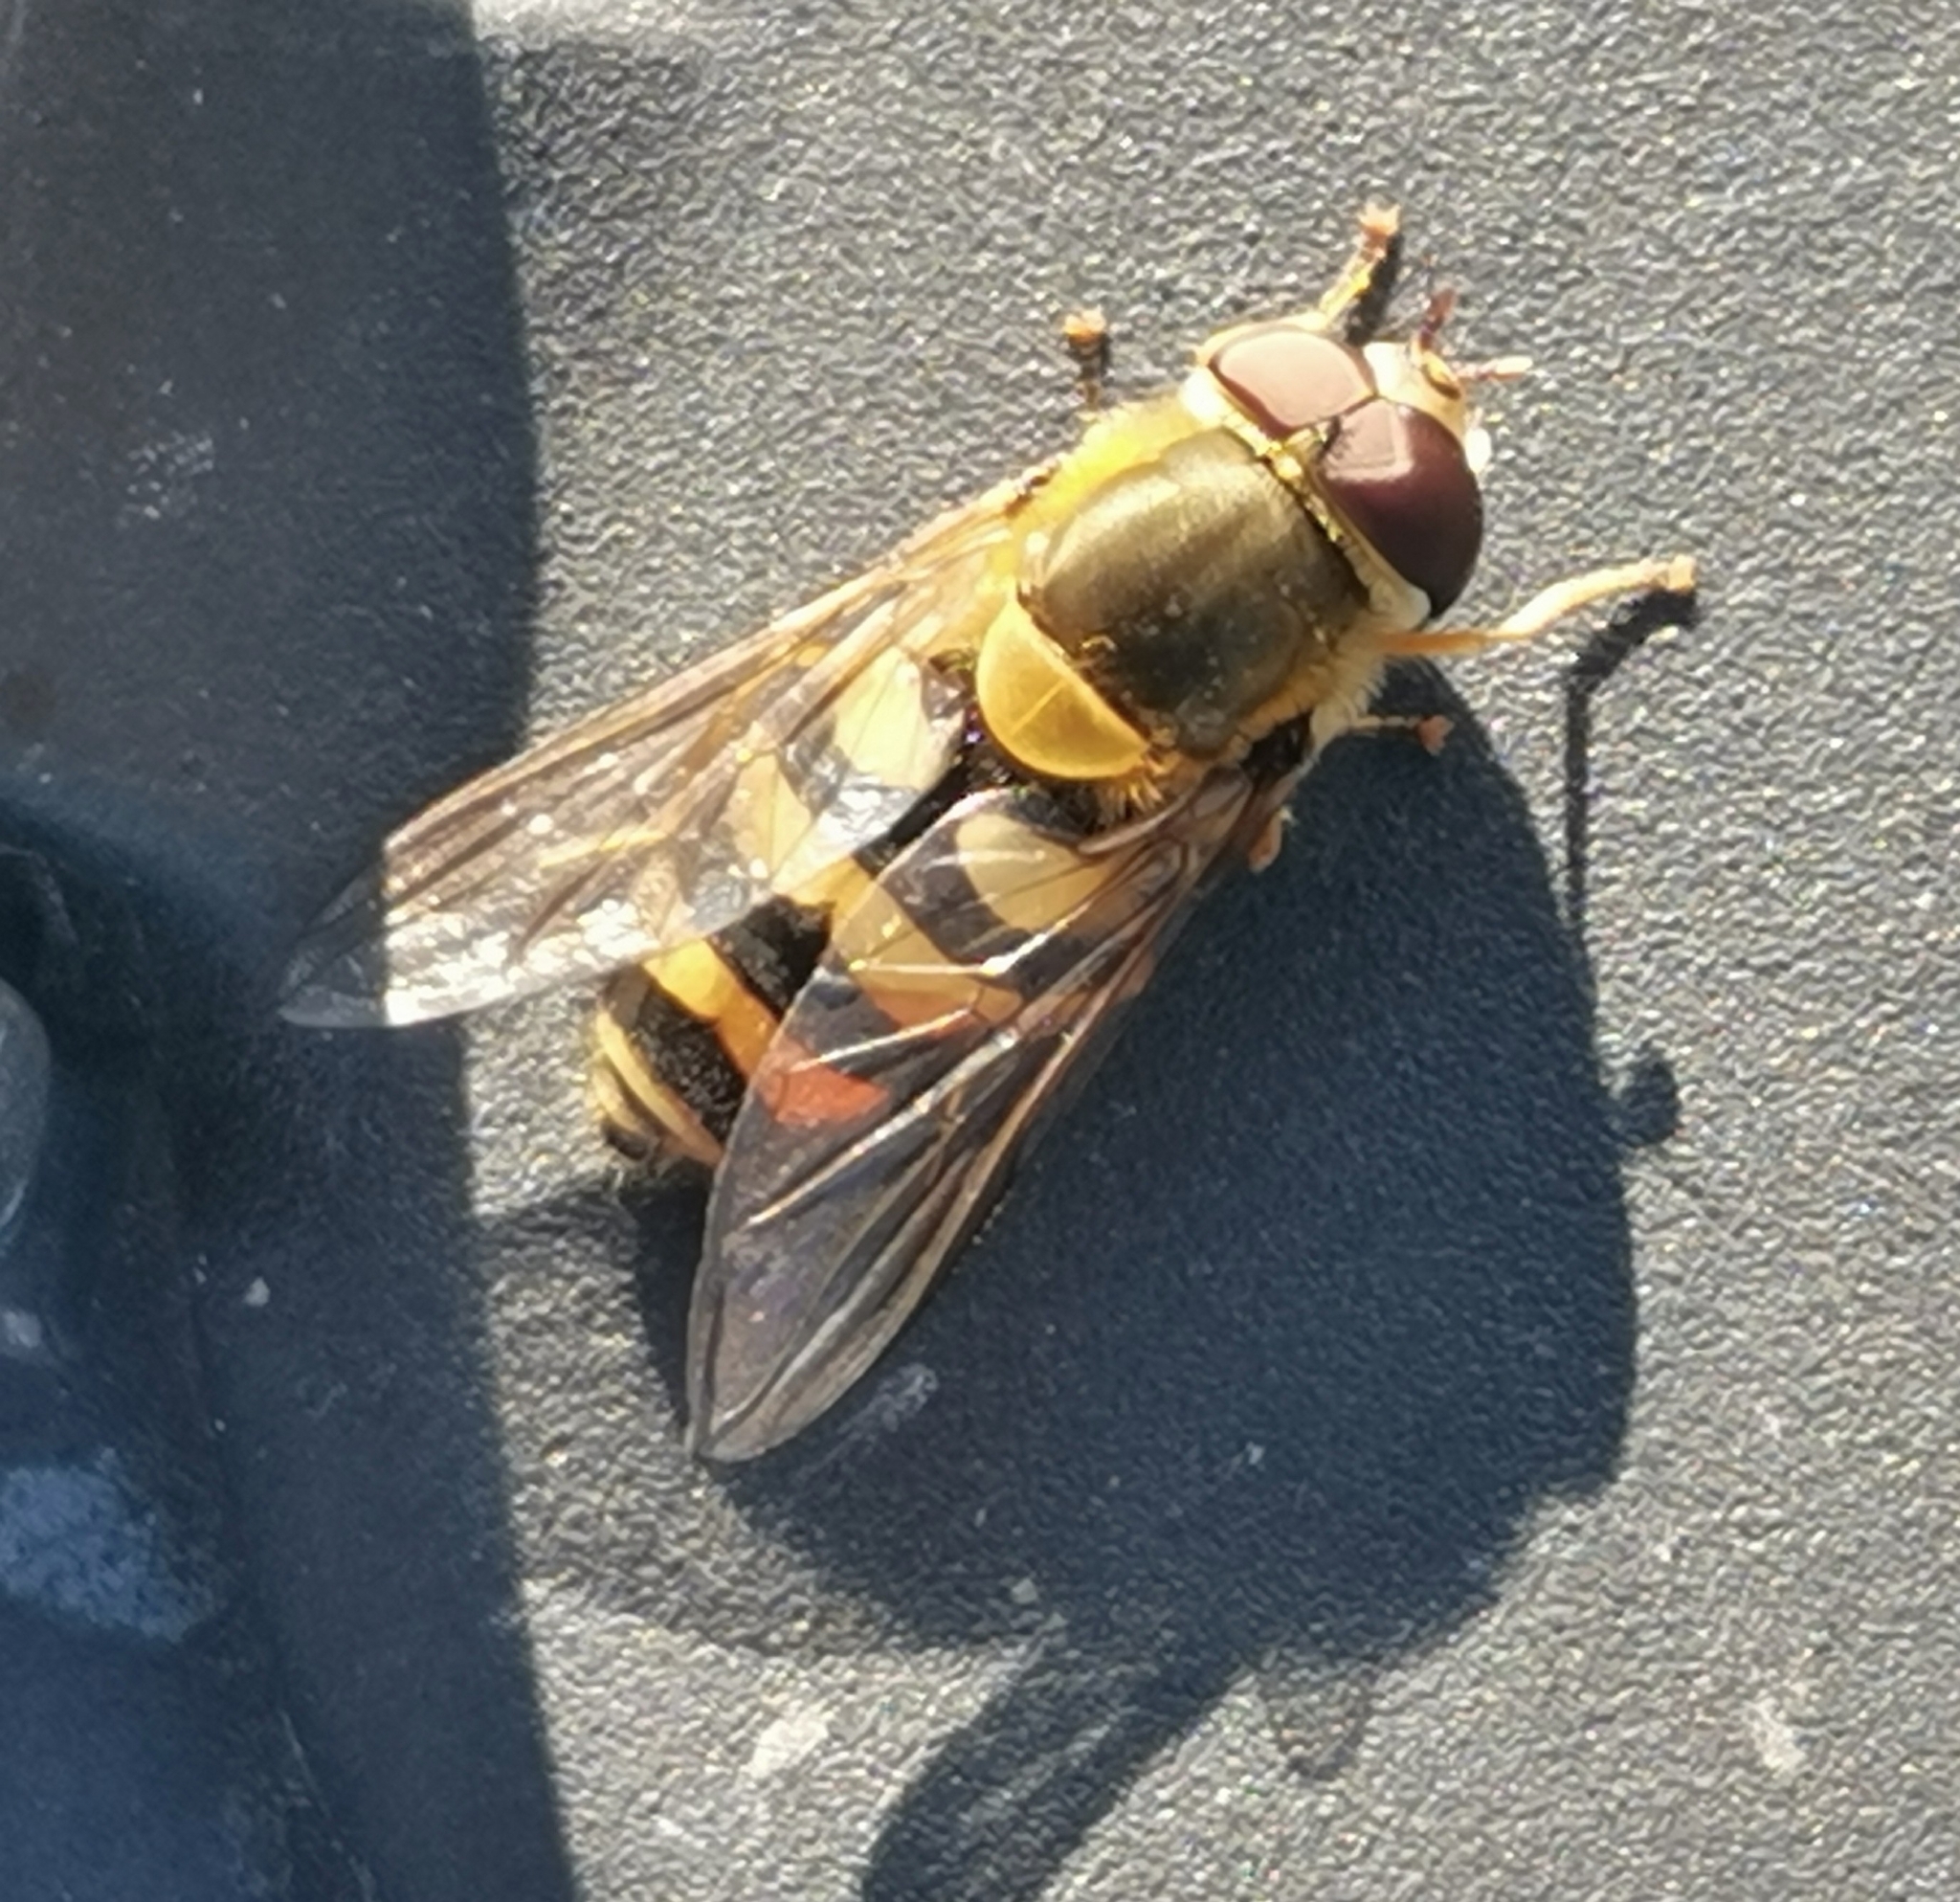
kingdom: Animalia
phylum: Arthropoda
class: Insecta
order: Diptera
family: Syrphidae
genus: Syrphus
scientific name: Syrphus
